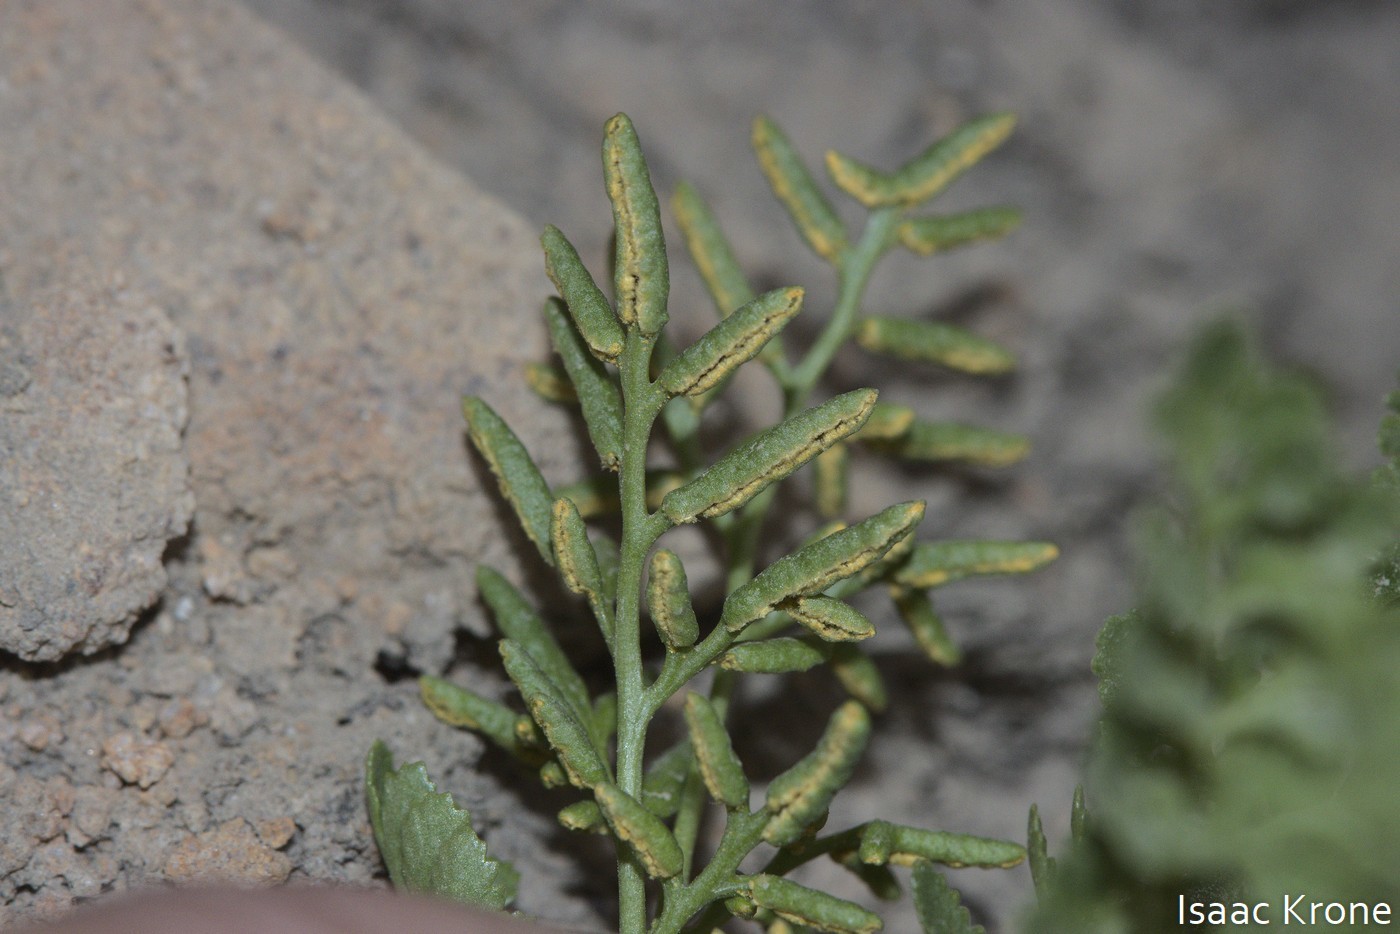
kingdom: Plantae
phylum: Tracheophyta
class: Polypodiopsida
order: Polypodiales
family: Pteridaceae
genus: Cryptogramma
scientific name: Cryptogramma acrostichoides
